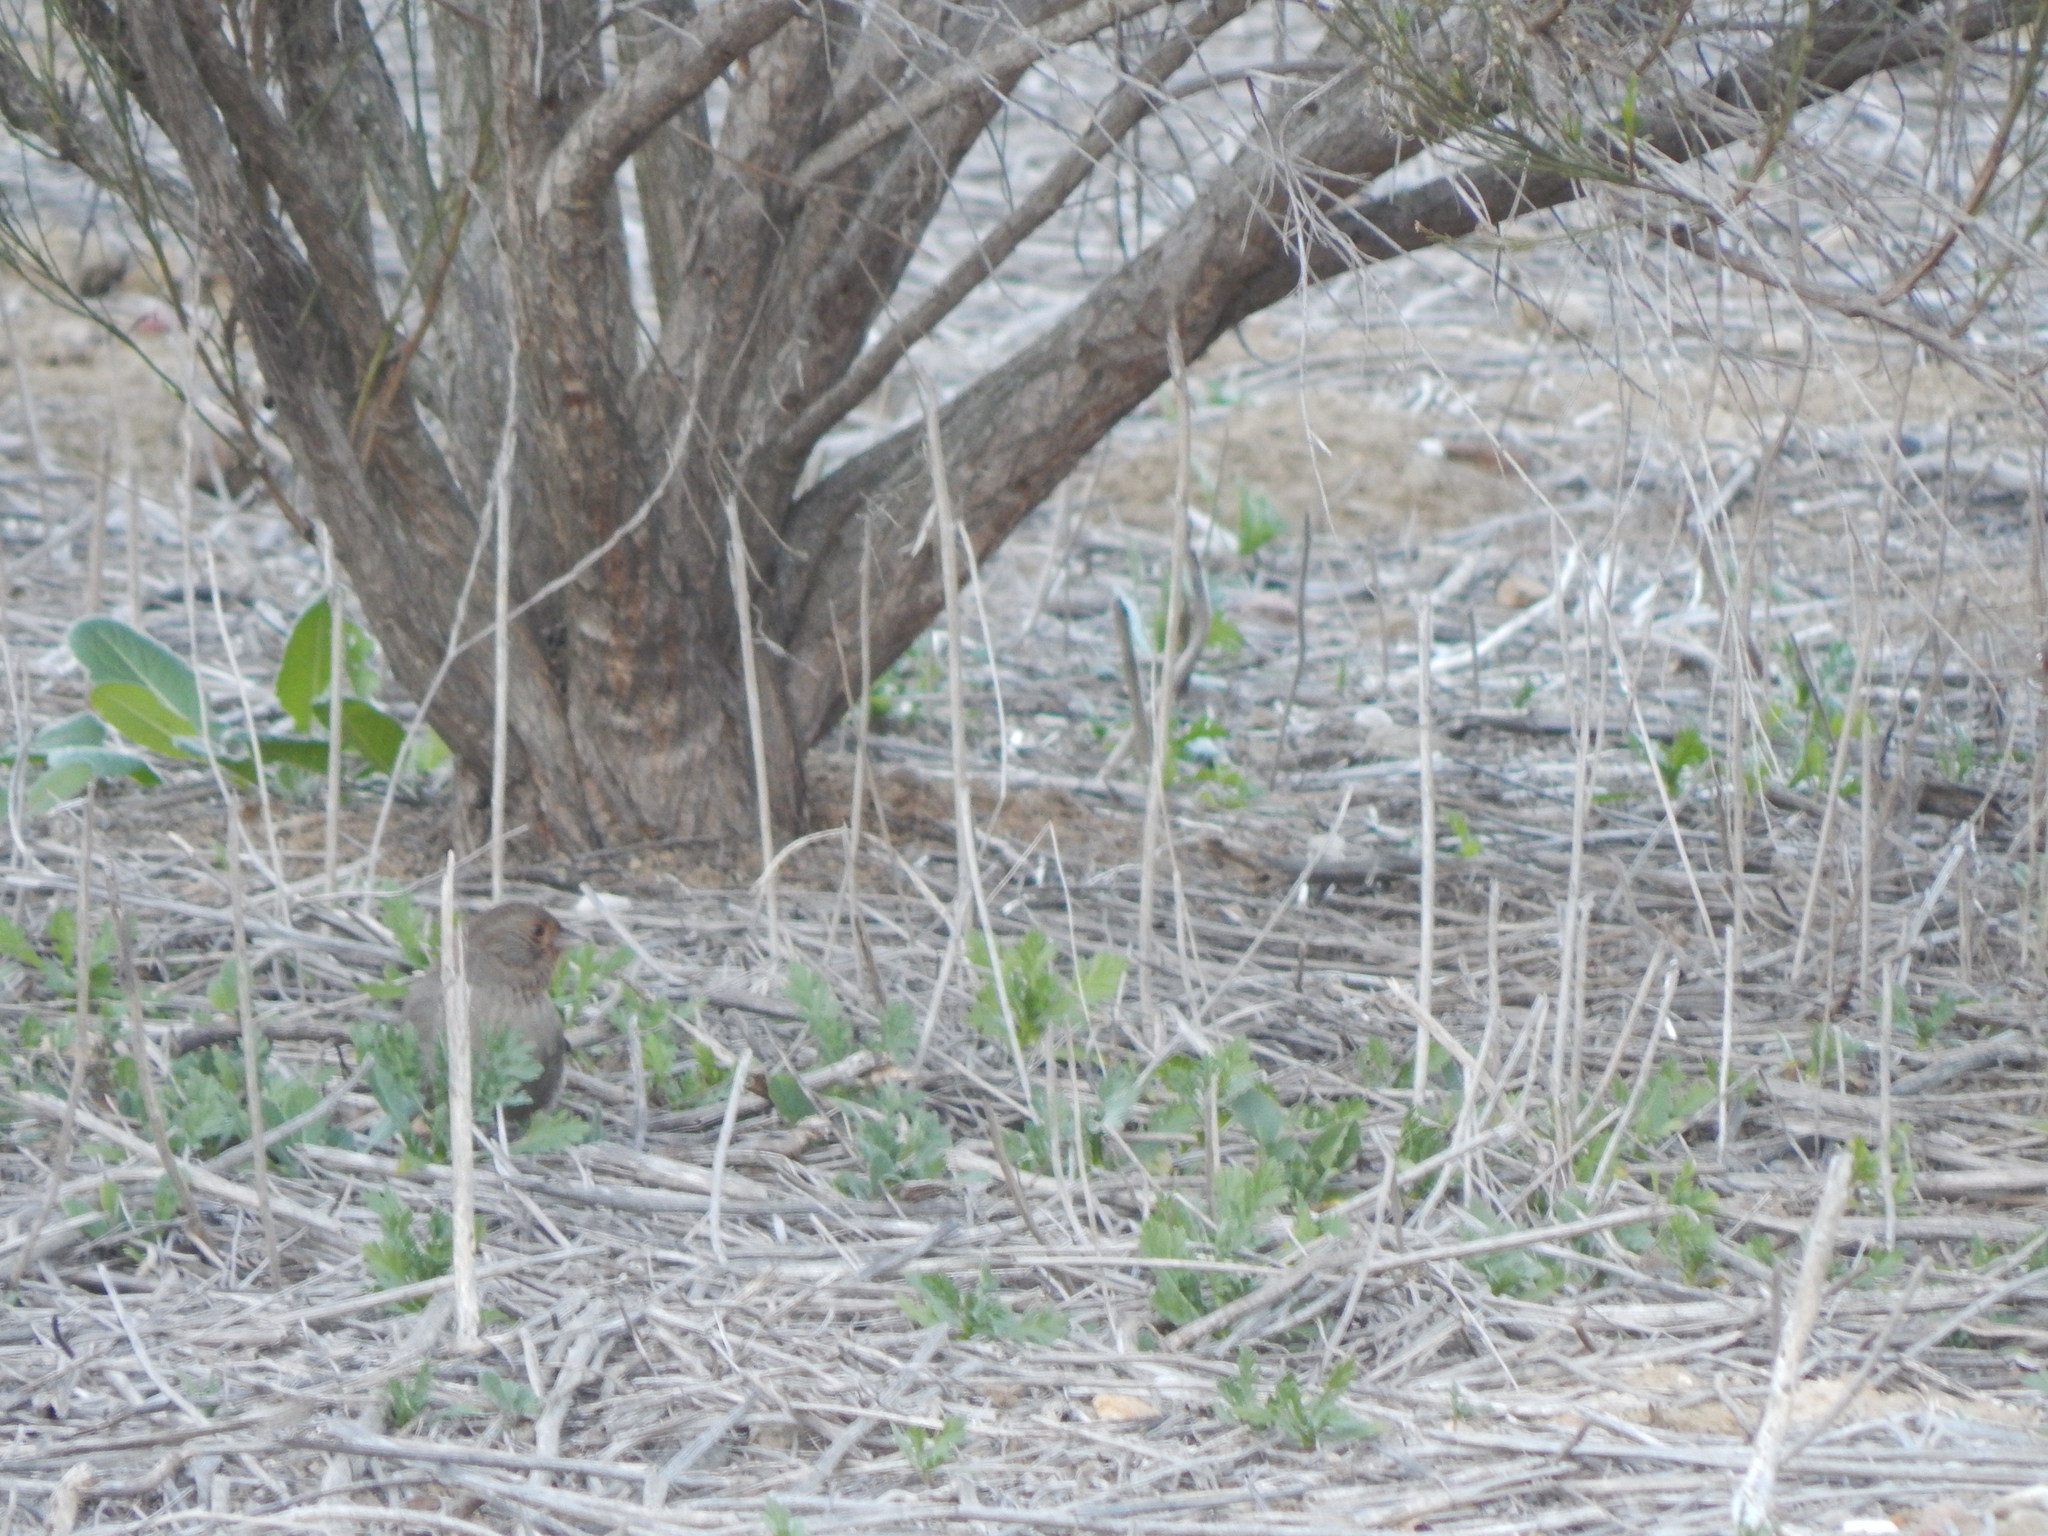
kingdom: Animalia
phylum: Chordata
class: Aves
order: Passeriformes
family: Passerellidae
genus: Melozone
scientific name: Melozone crissalis
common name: California towhee
